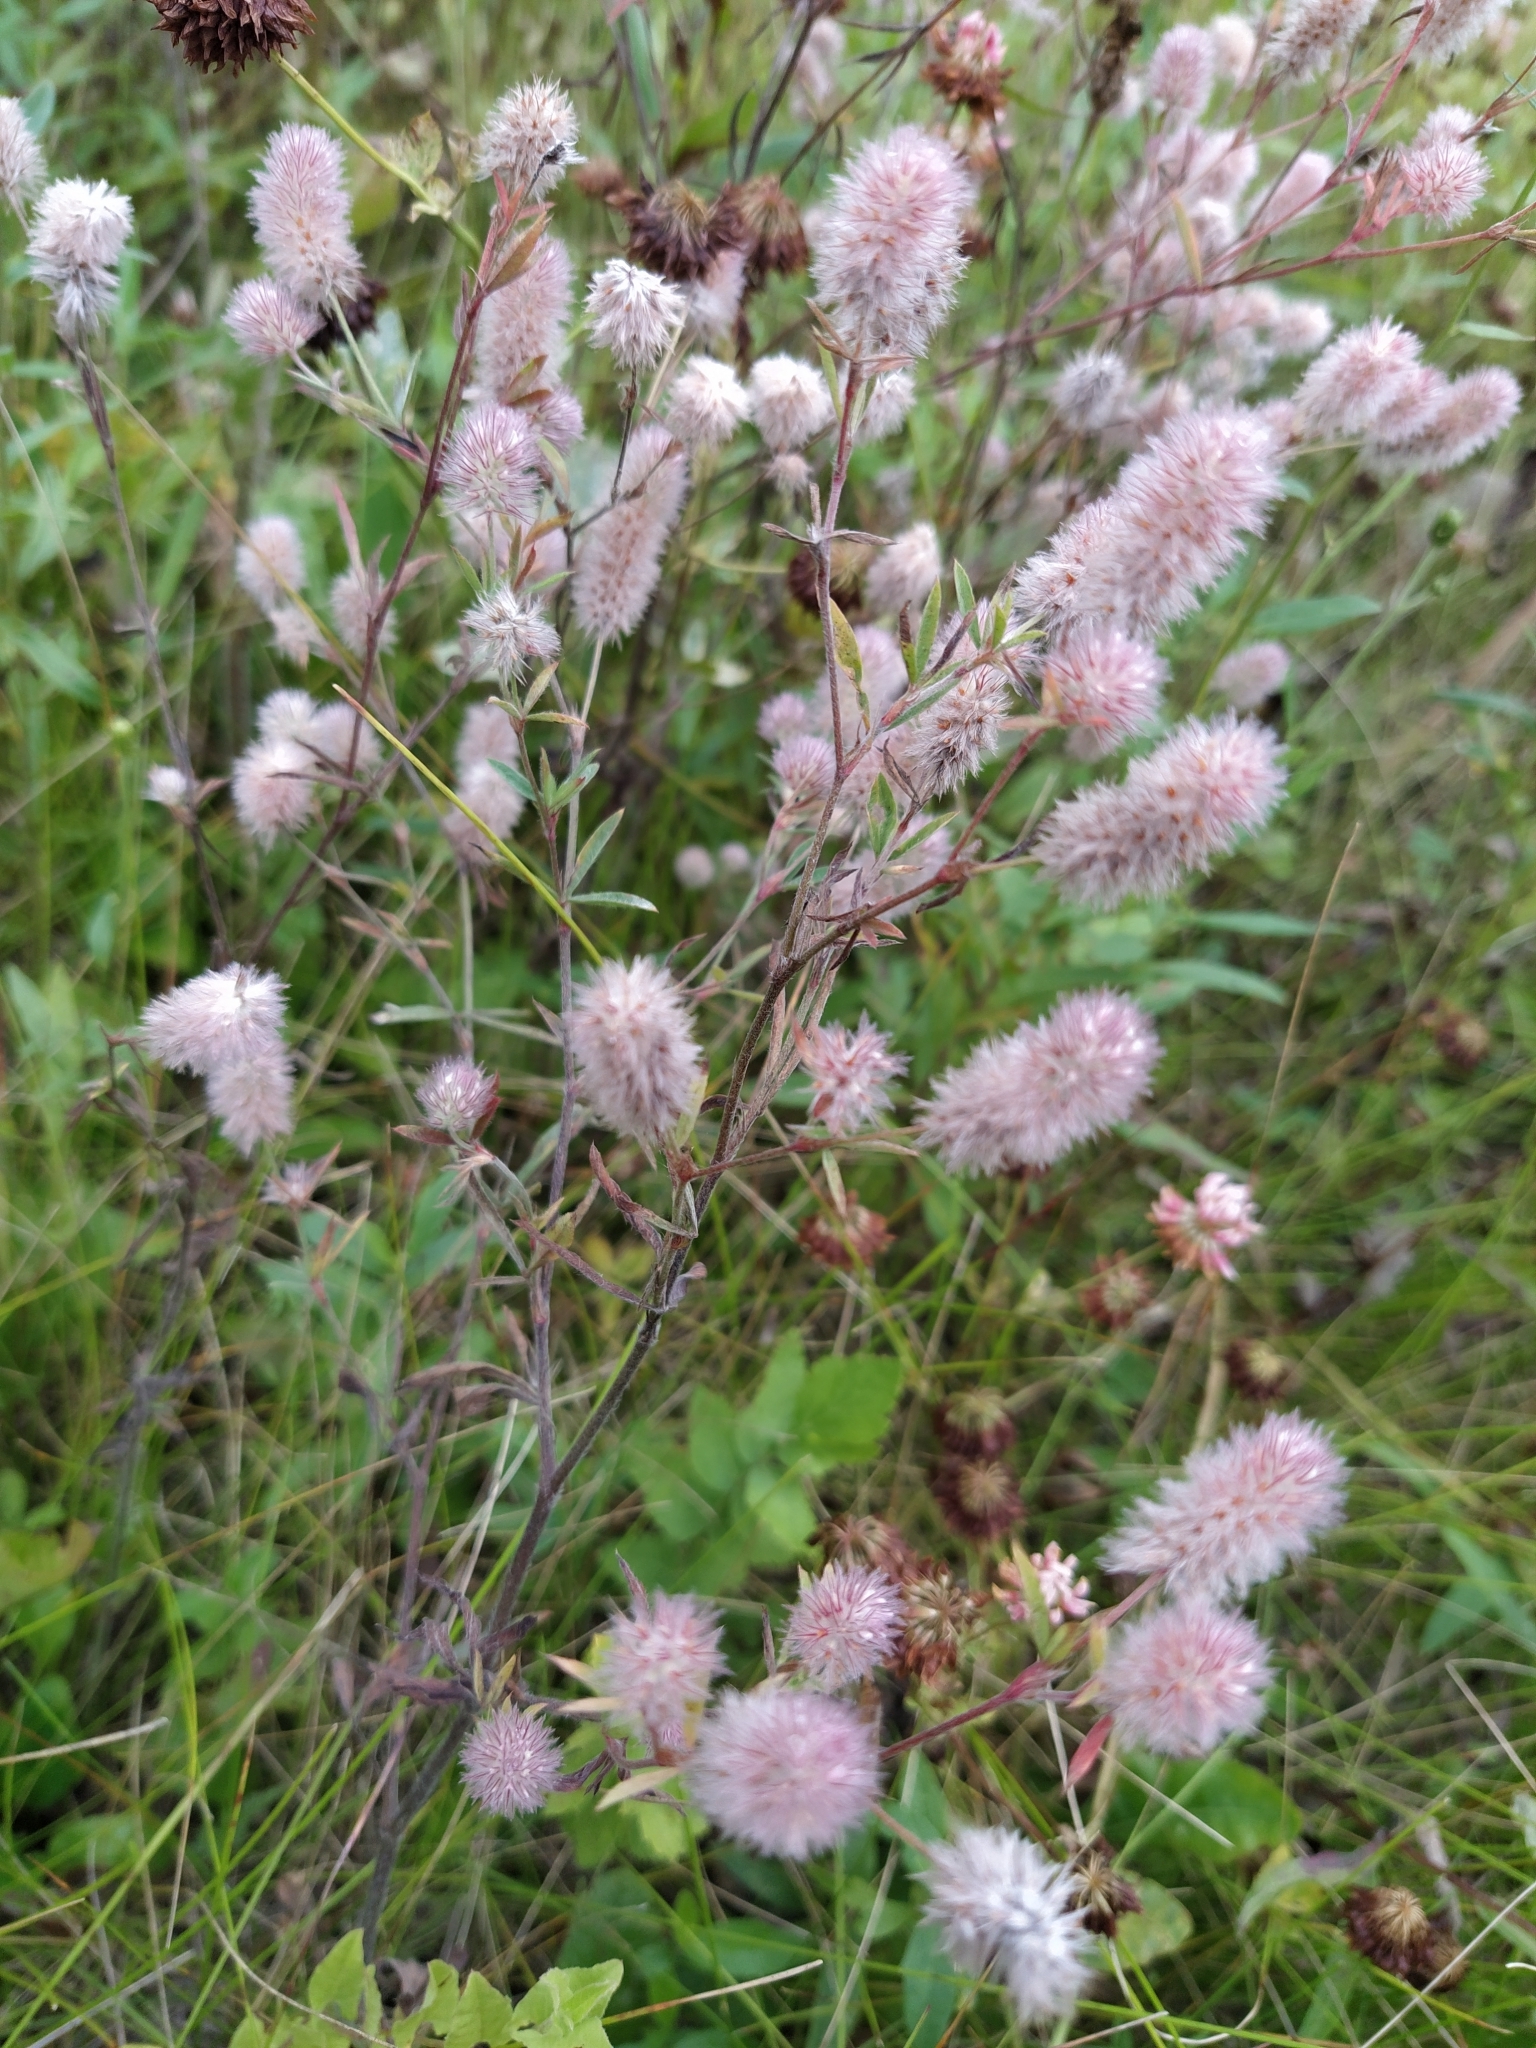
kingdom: Plantae
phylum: Tracheophyta
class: Magnoliopsida
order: Fabales
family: Fabaceae
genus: Trifolium
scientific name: Trifolium arvense
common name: Hare's-foot clover
